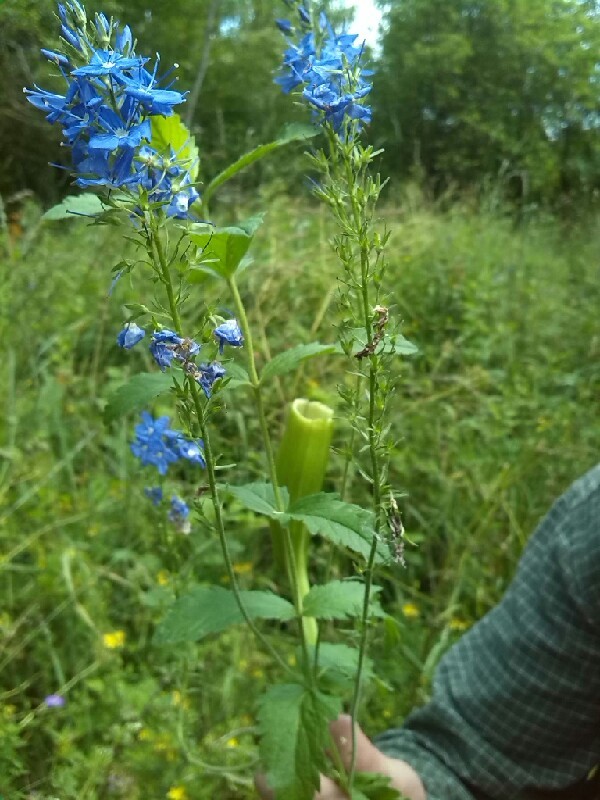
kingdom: Plantae
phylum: Tracheophyta
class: Magnoliopsida
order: Lamiales
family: Plantaginaceae
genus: Veronica
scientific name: Veronica teucrium
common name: Large speedwell
